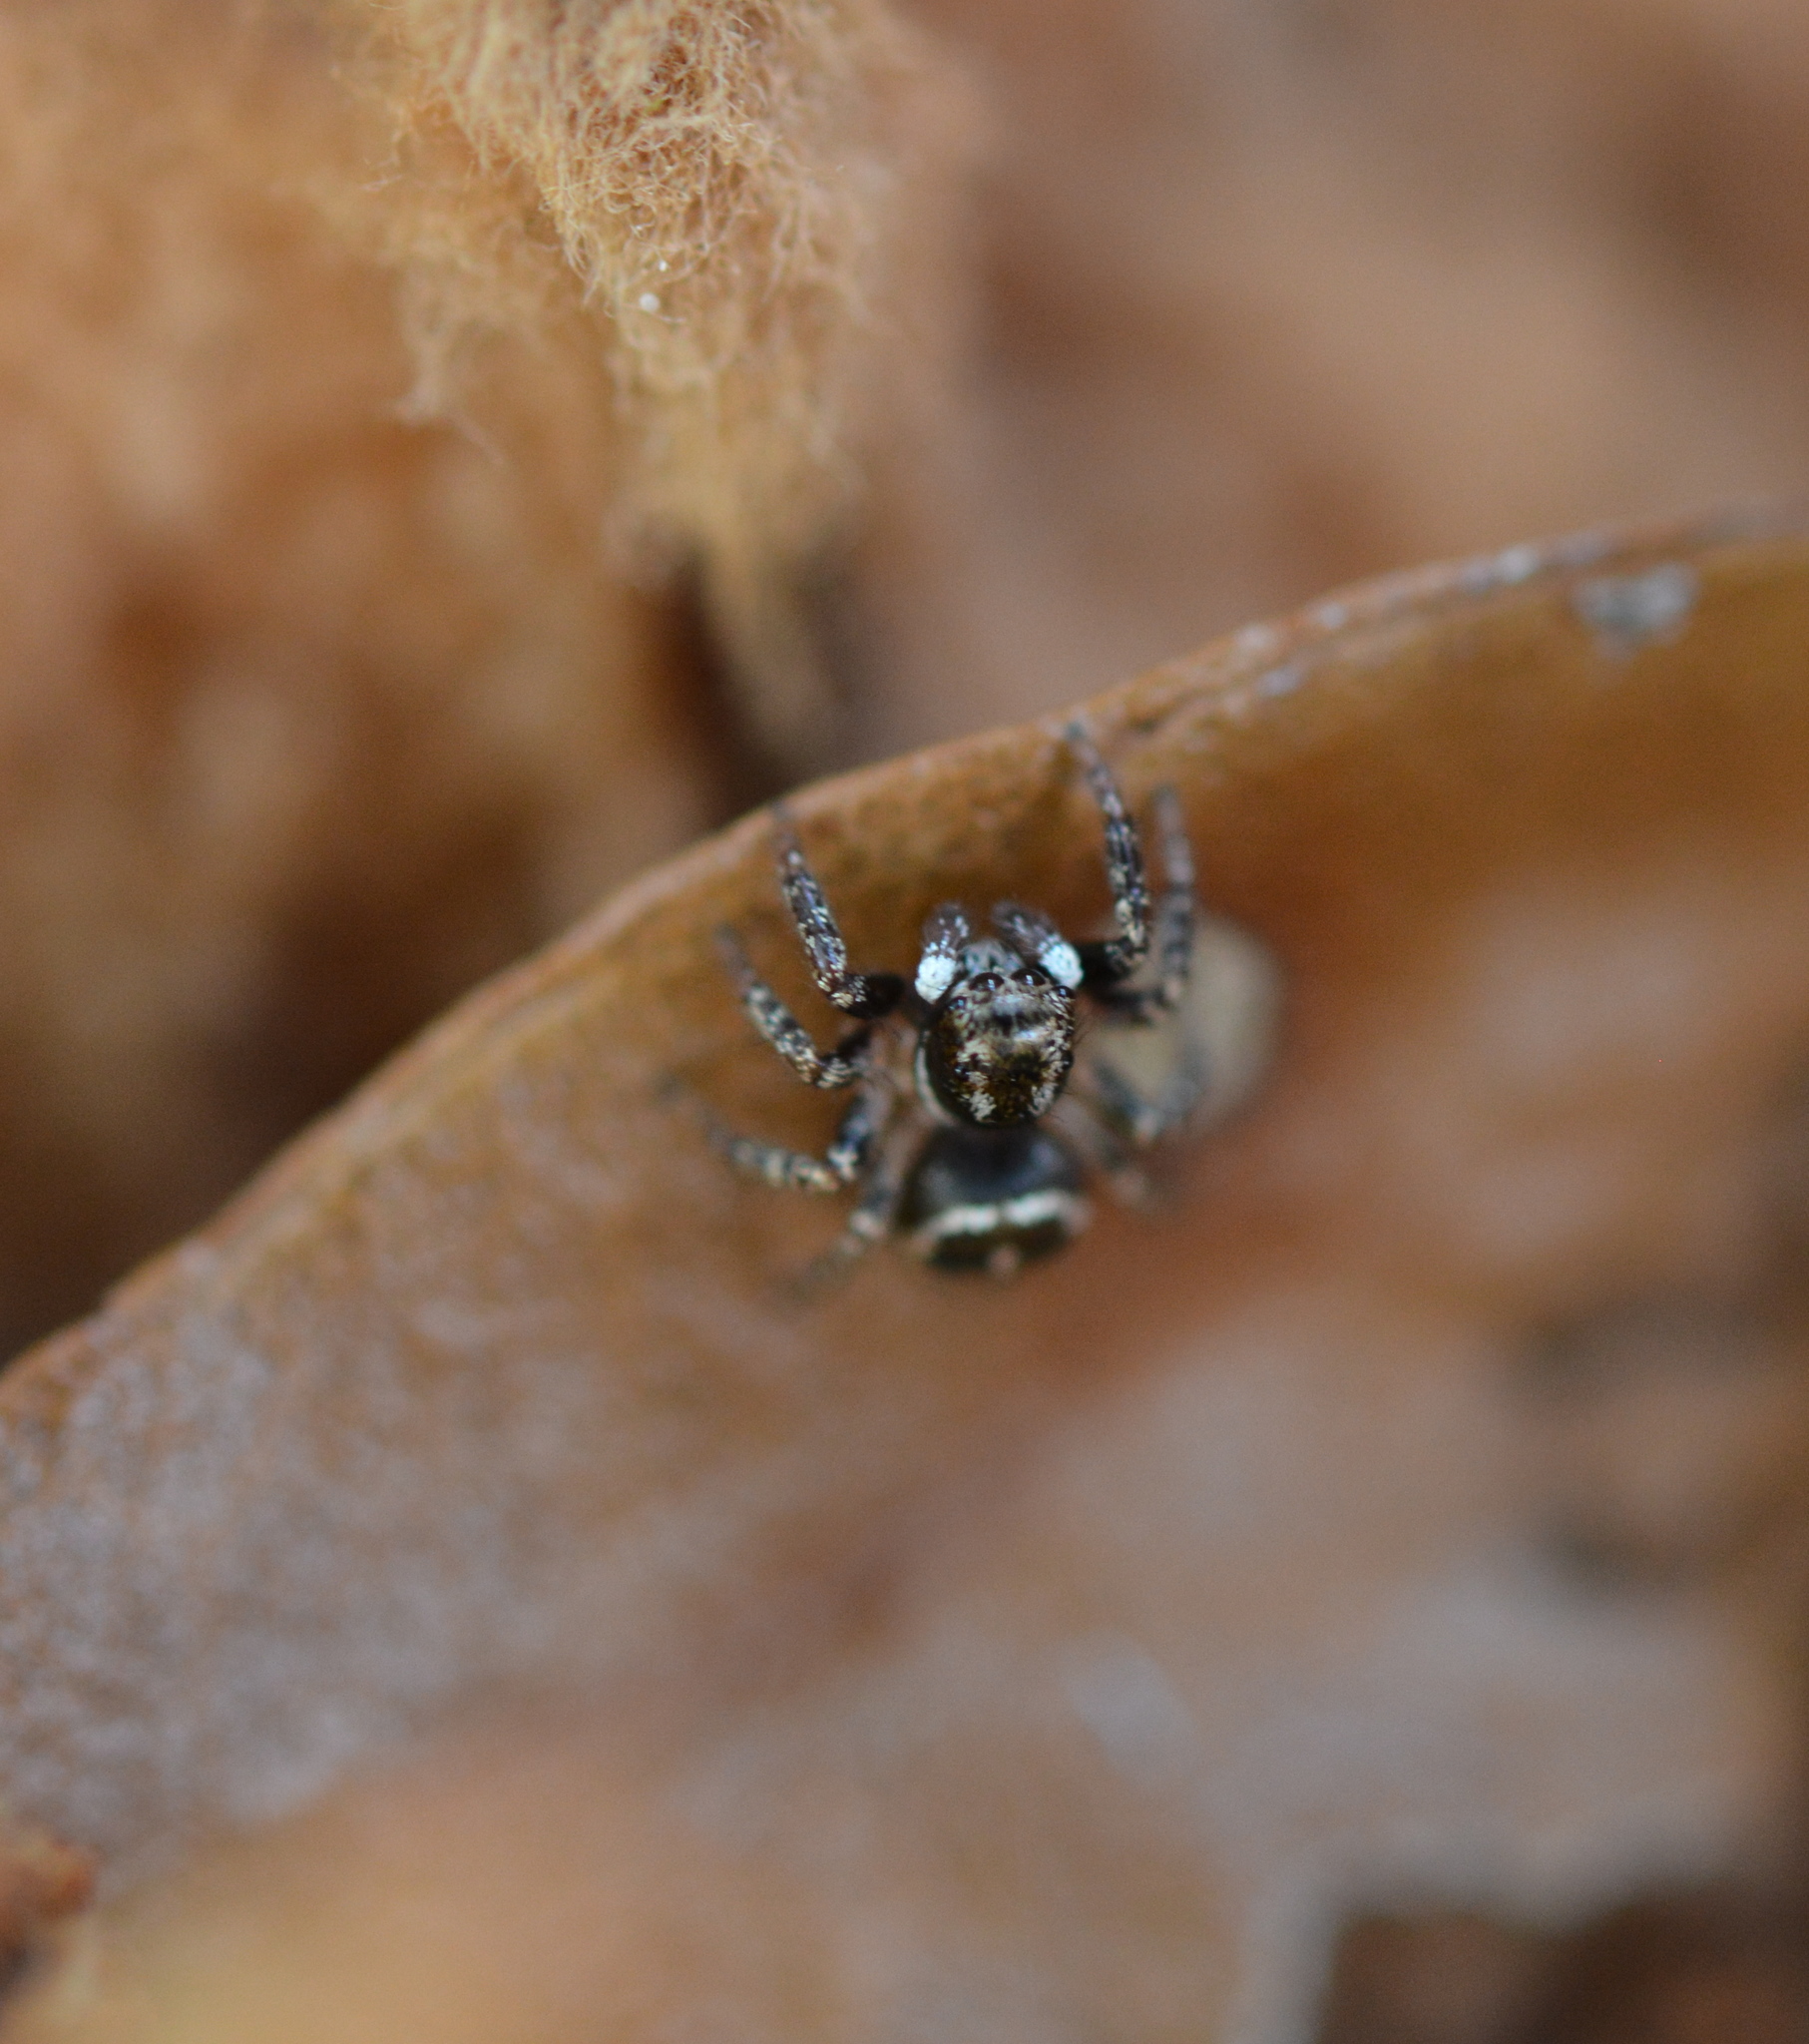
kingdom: Animalia
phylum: Arthropoda
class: Arachnida
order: Araneae
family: Salticidae
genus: Anasaitis
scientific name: Anasaitis canosa
